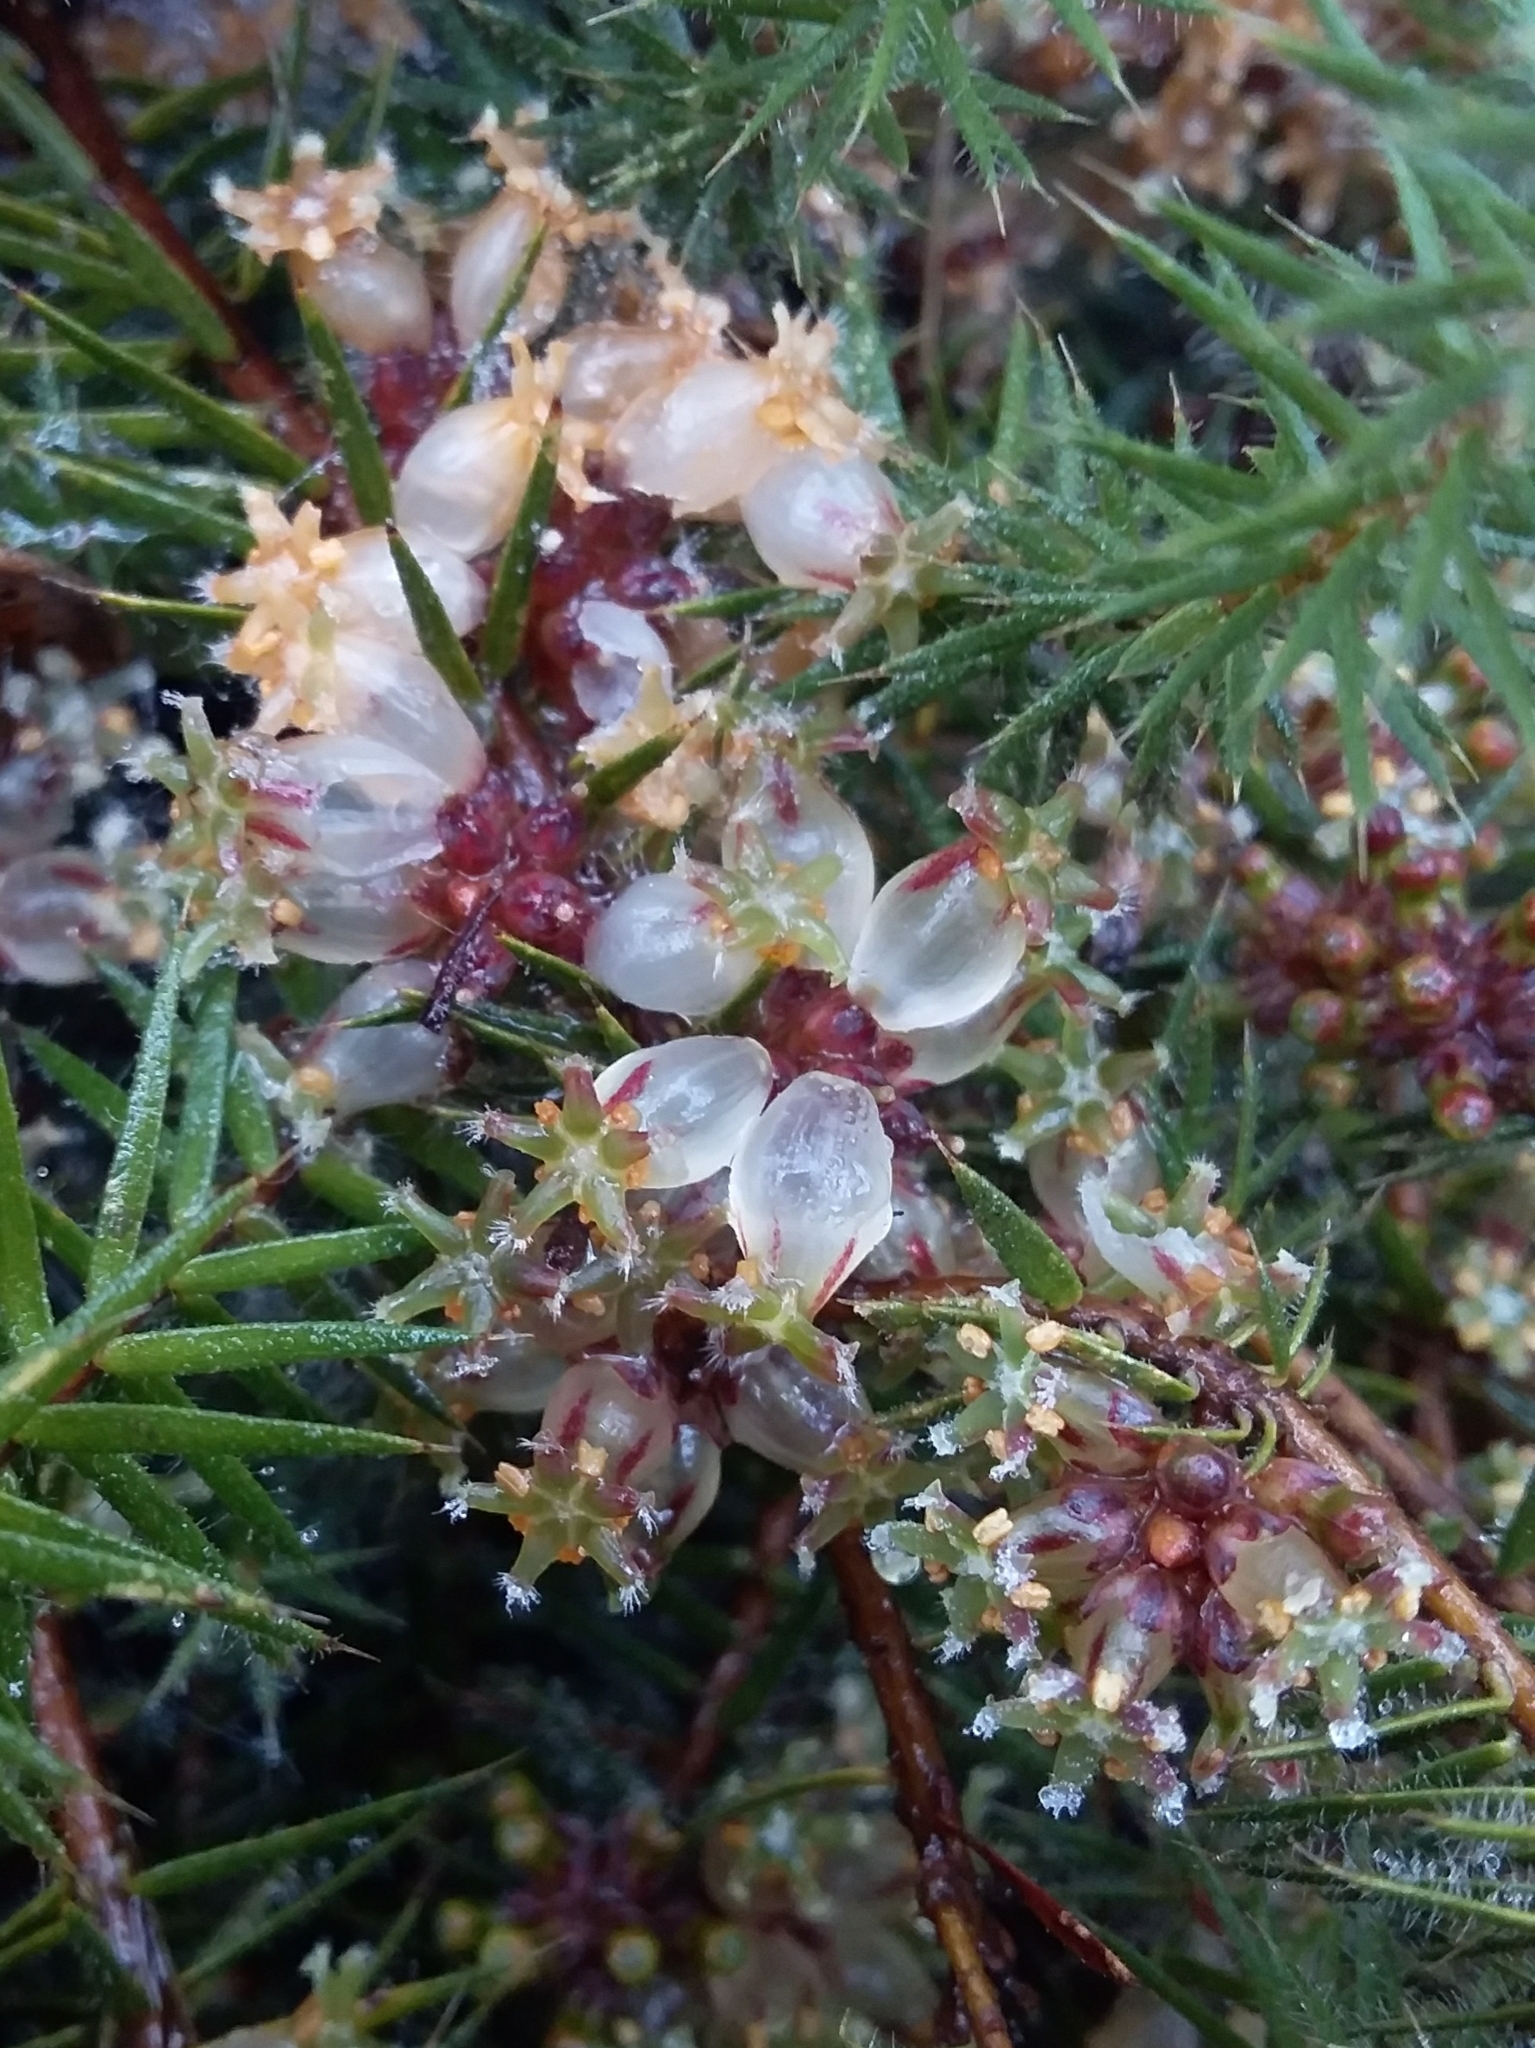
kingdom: Plantae
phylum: Tracheophyta
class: Magnoliopsida
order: Ericales
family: Ericaceae
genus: Acrotriche
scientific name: Acrotriche serrulata
